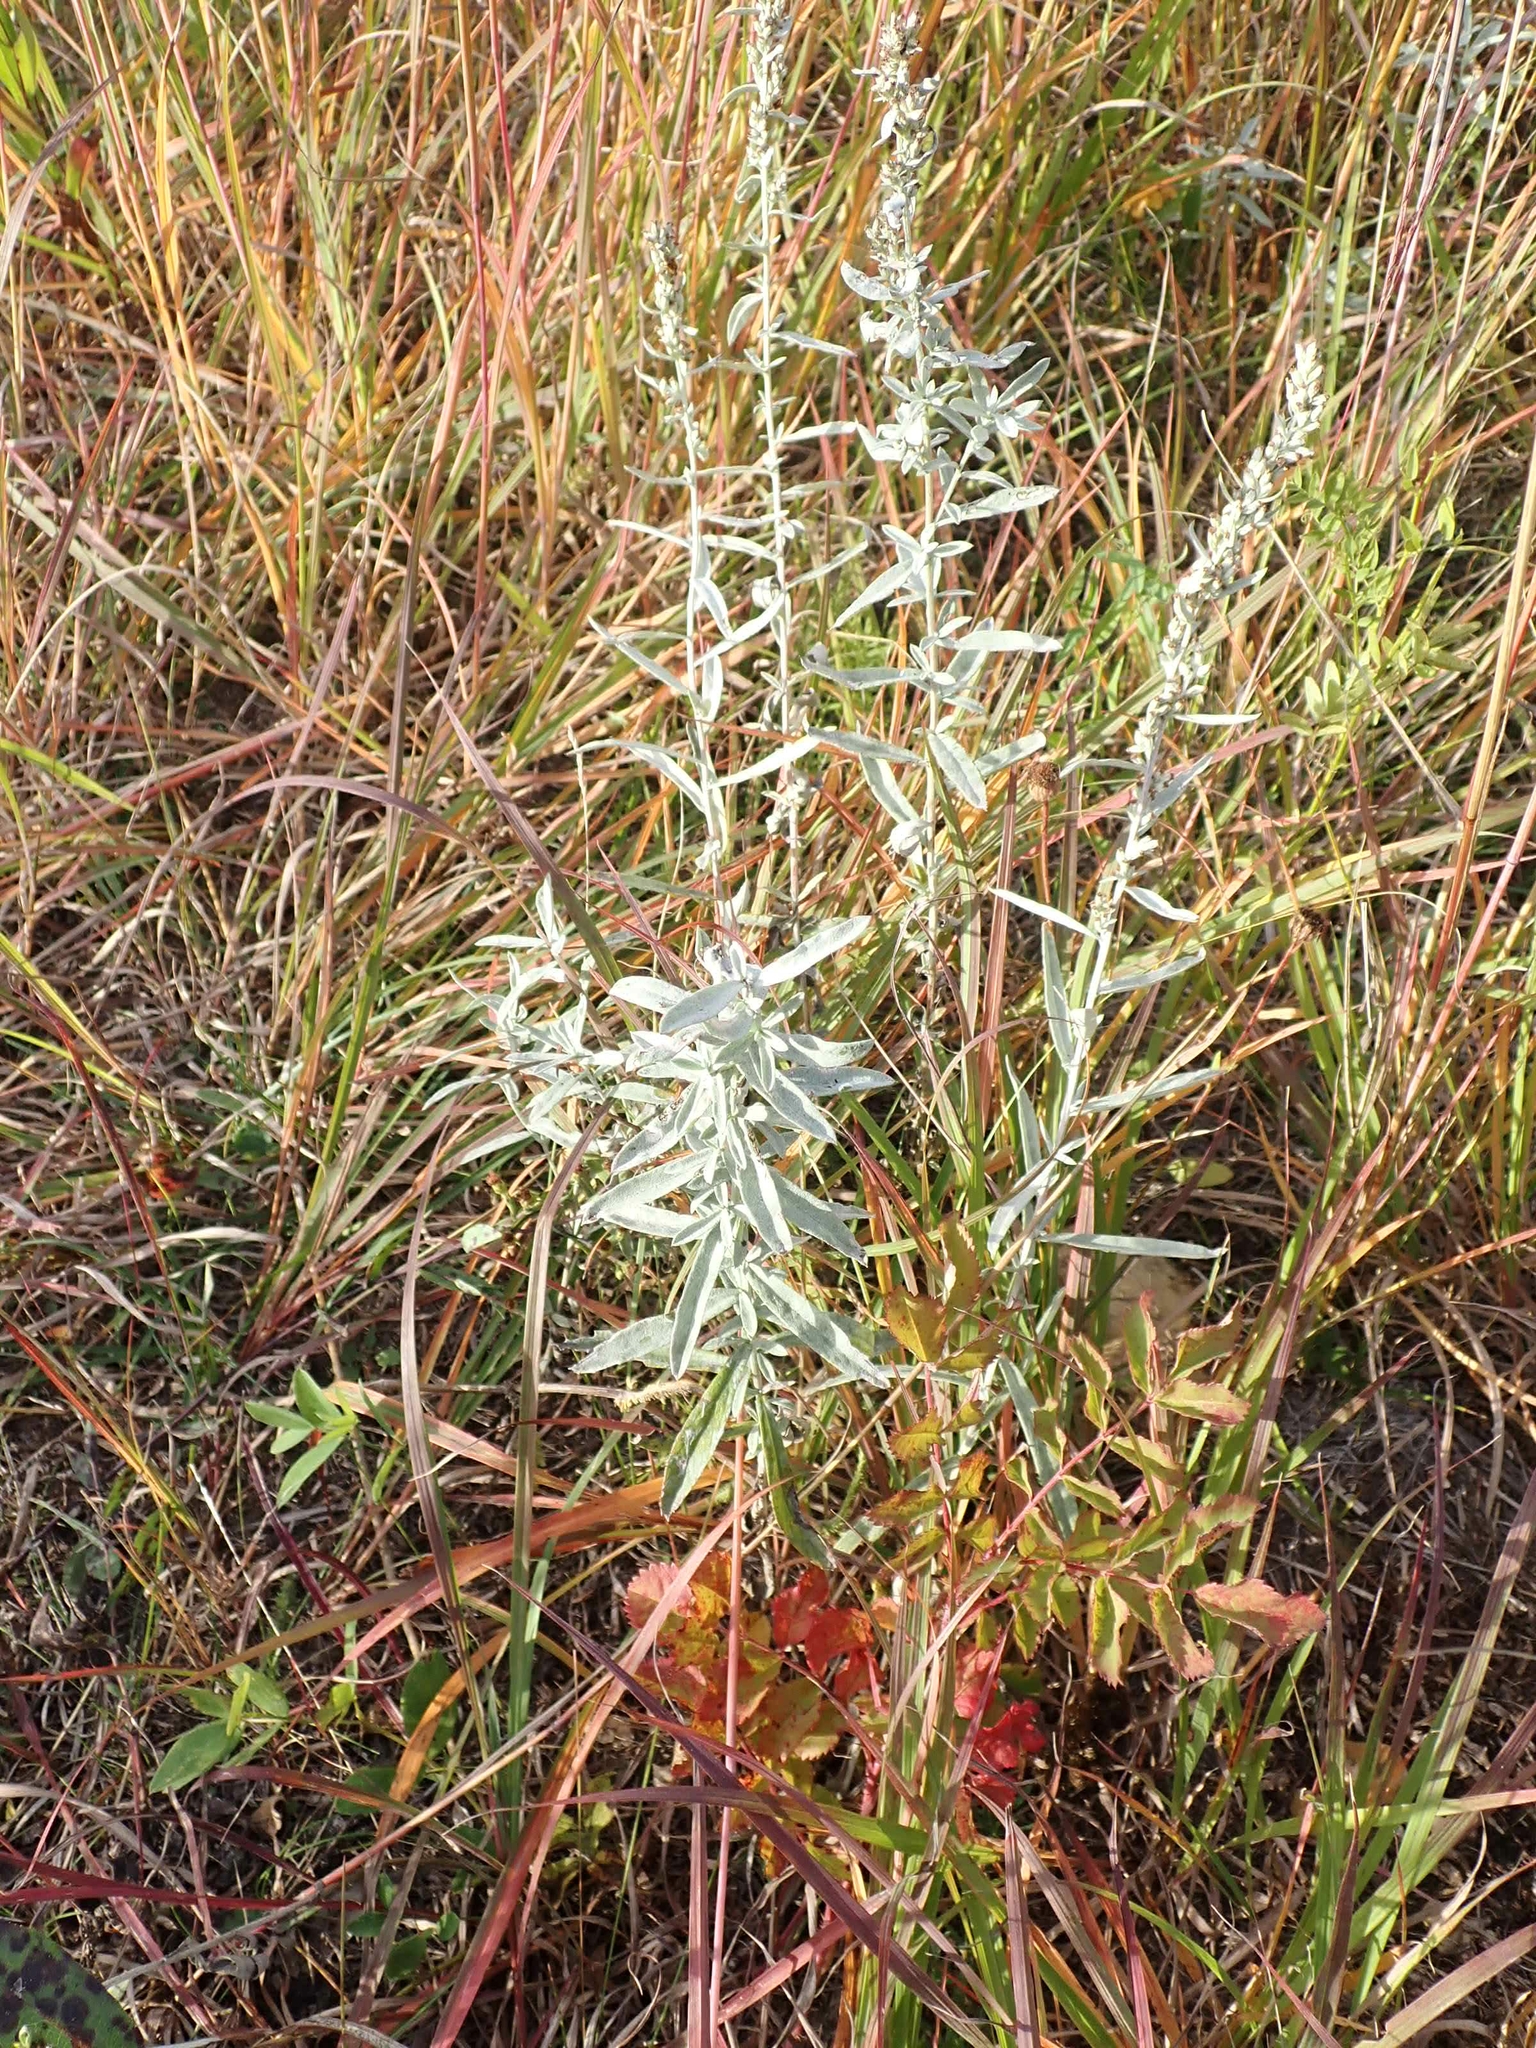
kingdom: Plantae
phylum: Tracheophyta
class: Magnoliopsida
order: Asterales
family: Asteraceae
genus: Artemisia
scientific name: Artemisia ludoviciana
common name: Western mugwort
